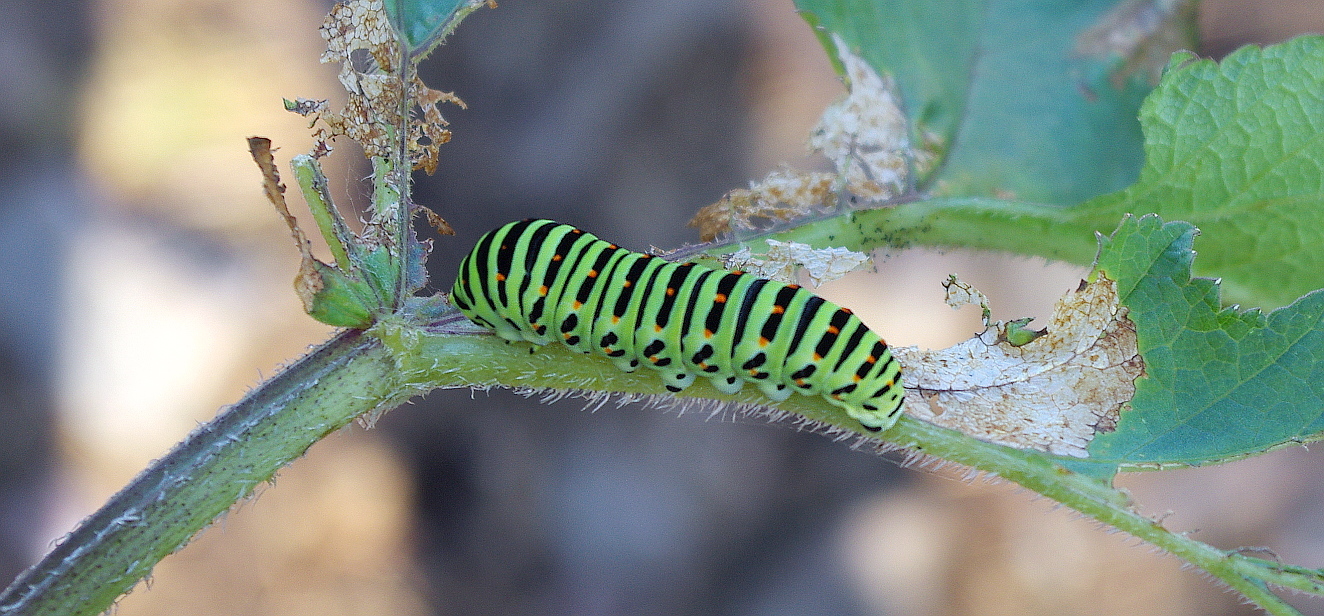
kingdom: Animalia
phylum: Arthropoda
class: Insecta
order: Lepidoptera
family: Papilionidae
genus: Papilio
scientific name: Papilio machaon
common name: Swallowtail
